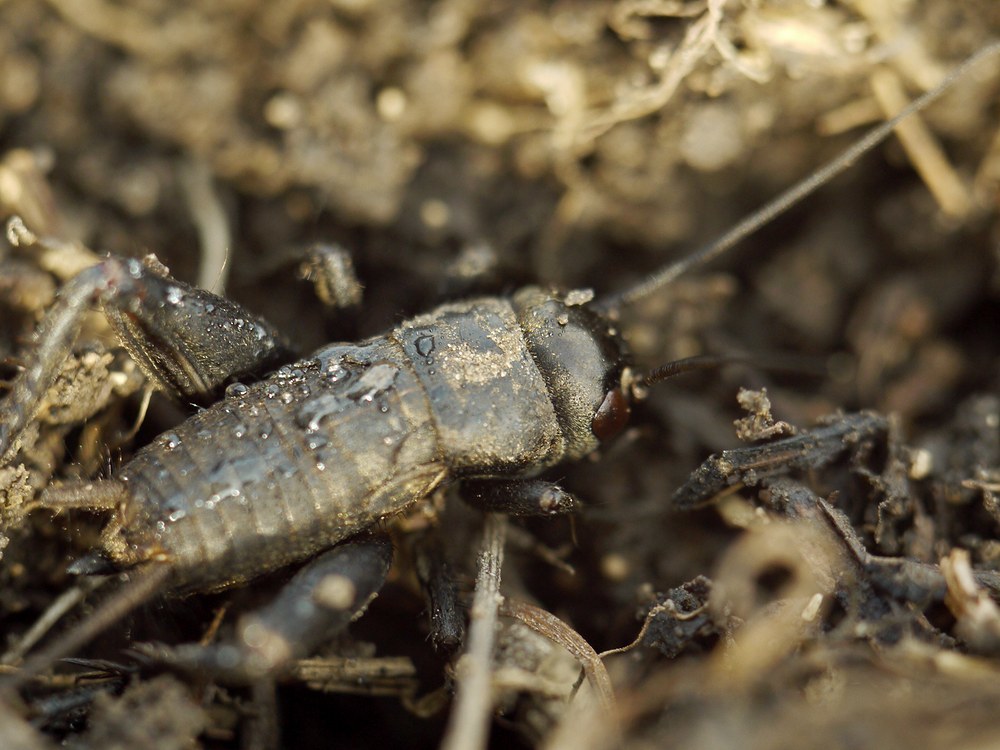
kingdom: Animalia
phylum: Arthropoda
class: Insecta
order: Orthoptera
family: Gryllidae
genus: Melanogryllus
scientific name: Melanogryllus desertus
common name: Desert cricket
